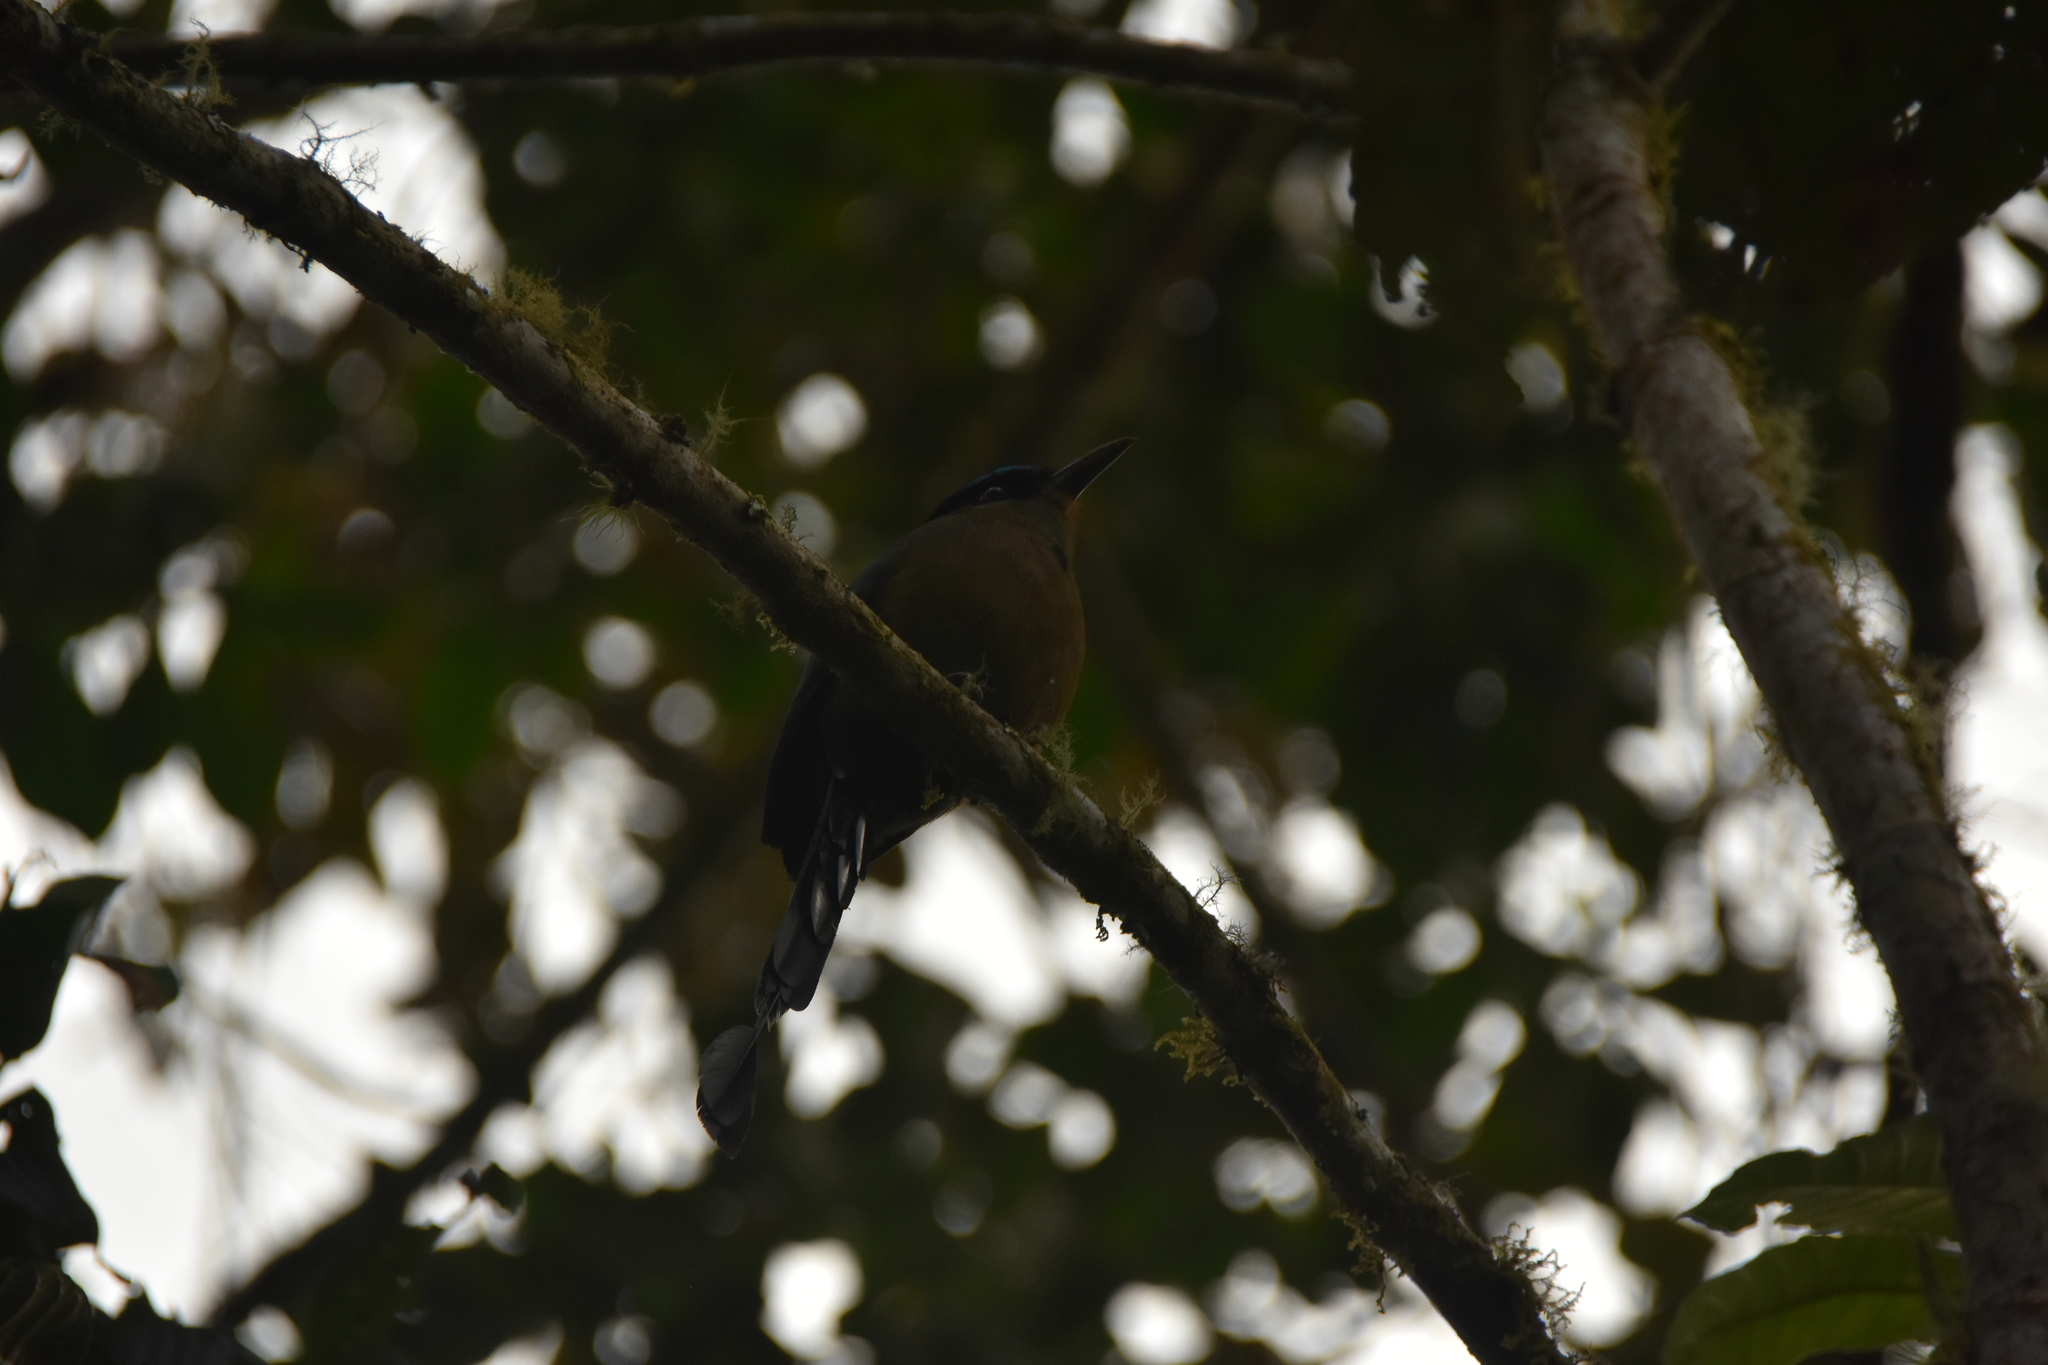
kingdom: Animalia
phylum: Chordata
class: Aves
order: Coraciiformes
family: Momotidae
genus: Momotus
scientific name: Momotus aequatorialis
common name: Andean motmot
